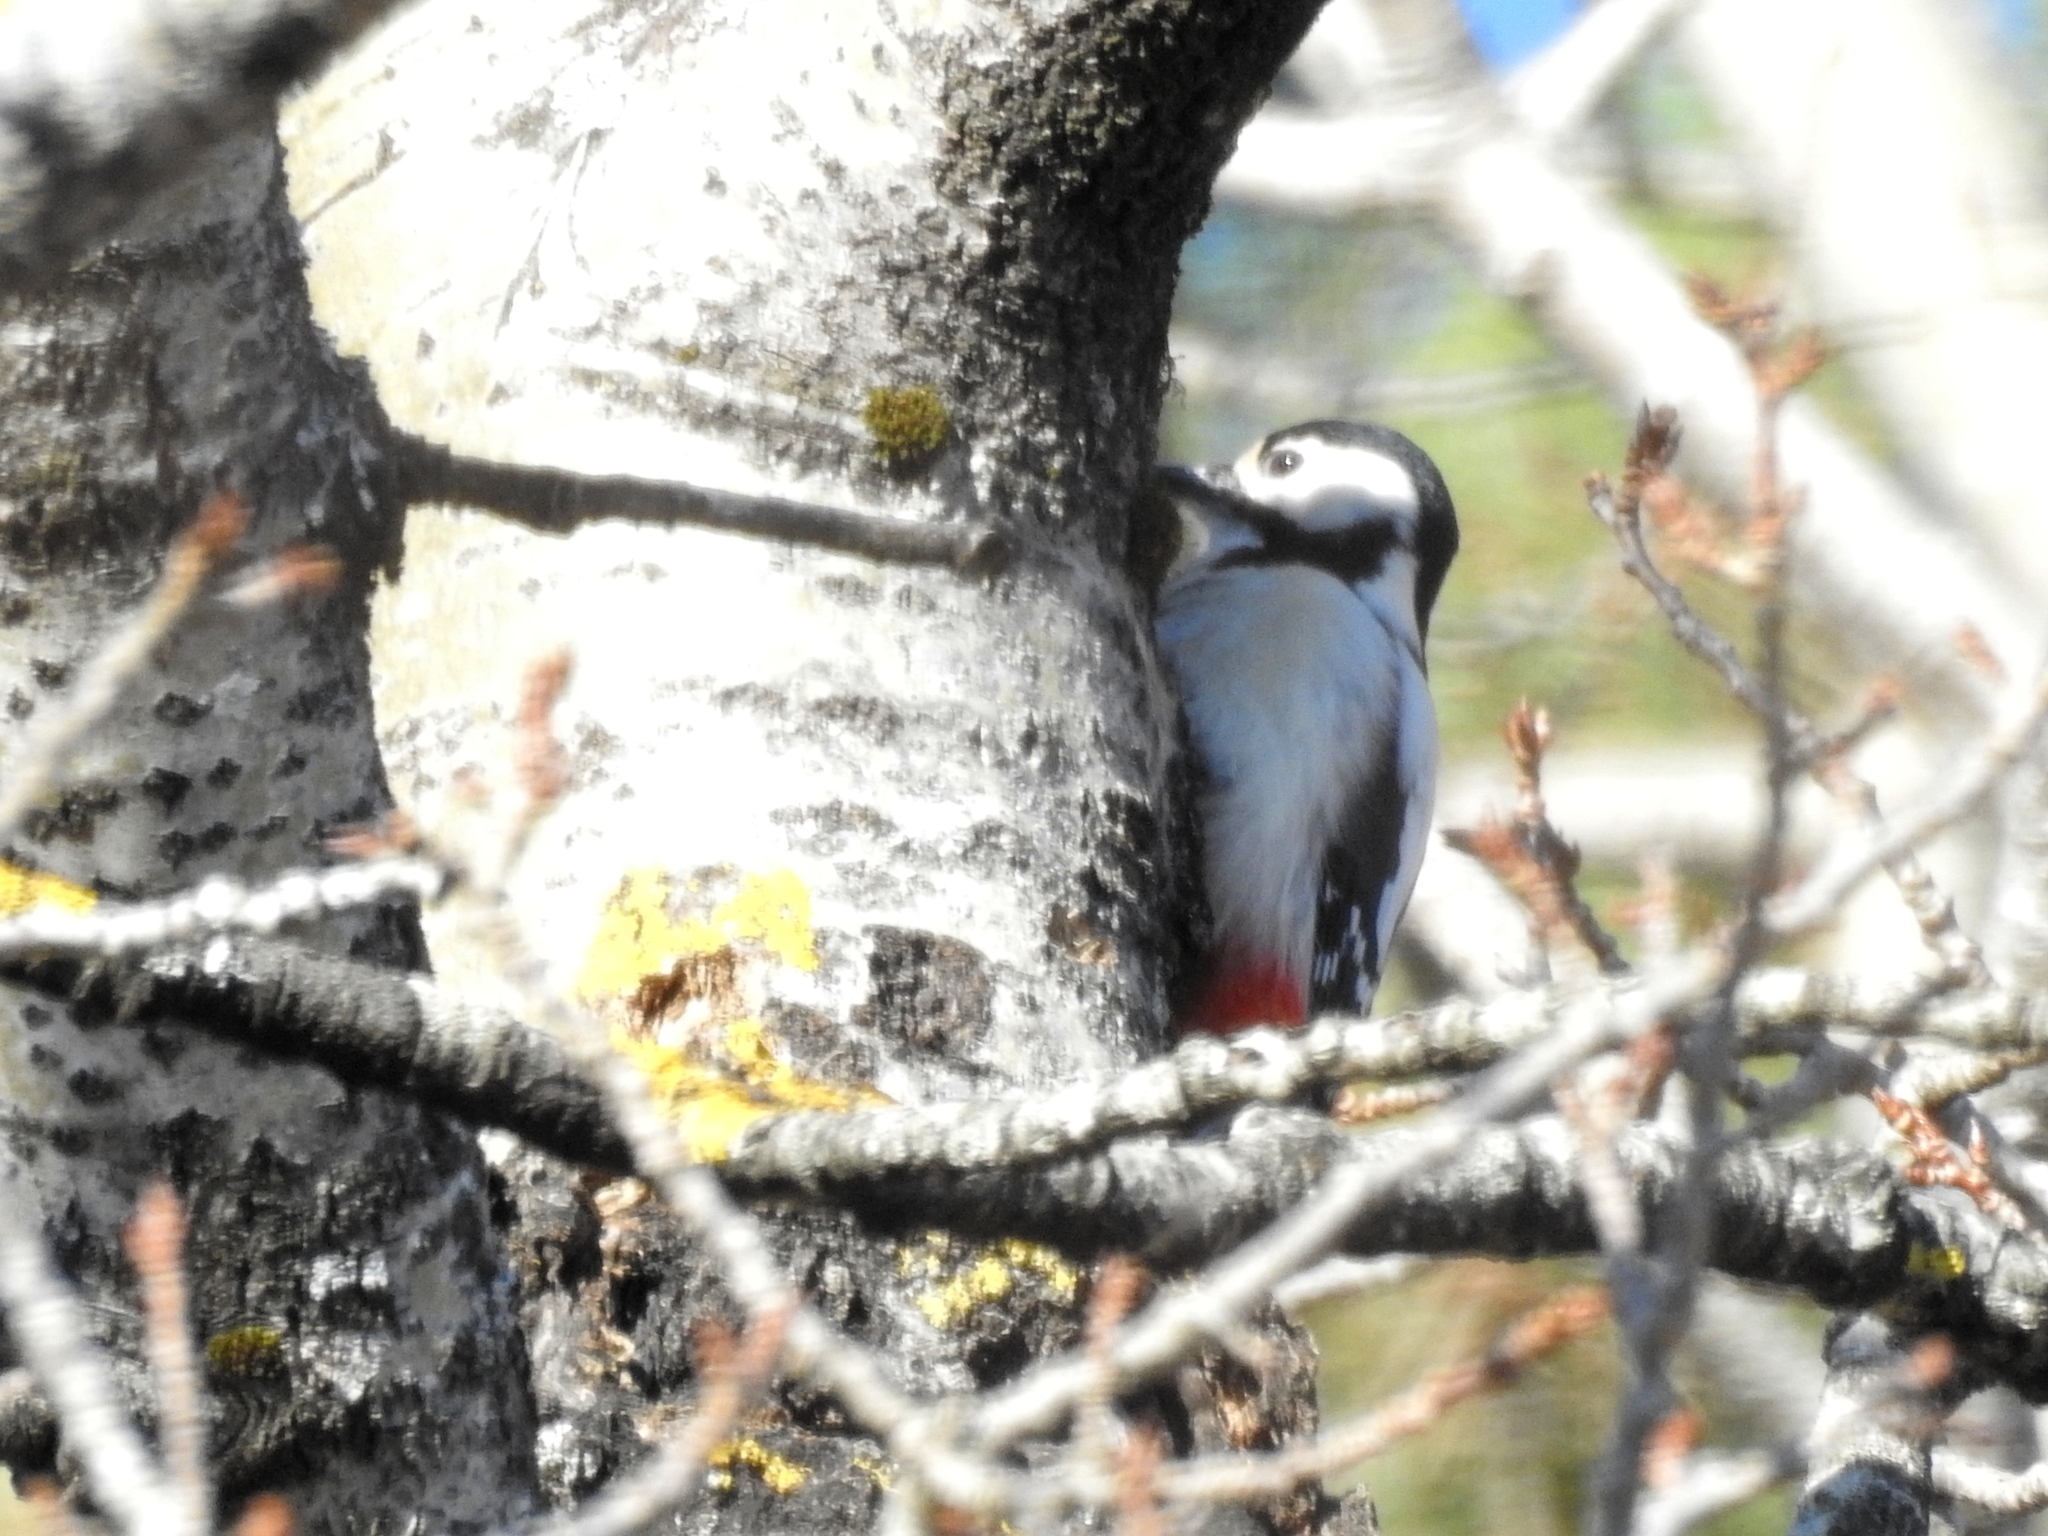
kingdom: Animalia
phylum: Chordata
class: Aves
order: Piciformes
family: Picidae
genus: Dendrocopos
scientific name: Dendrocopos major
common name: Great spotted woodpecker
